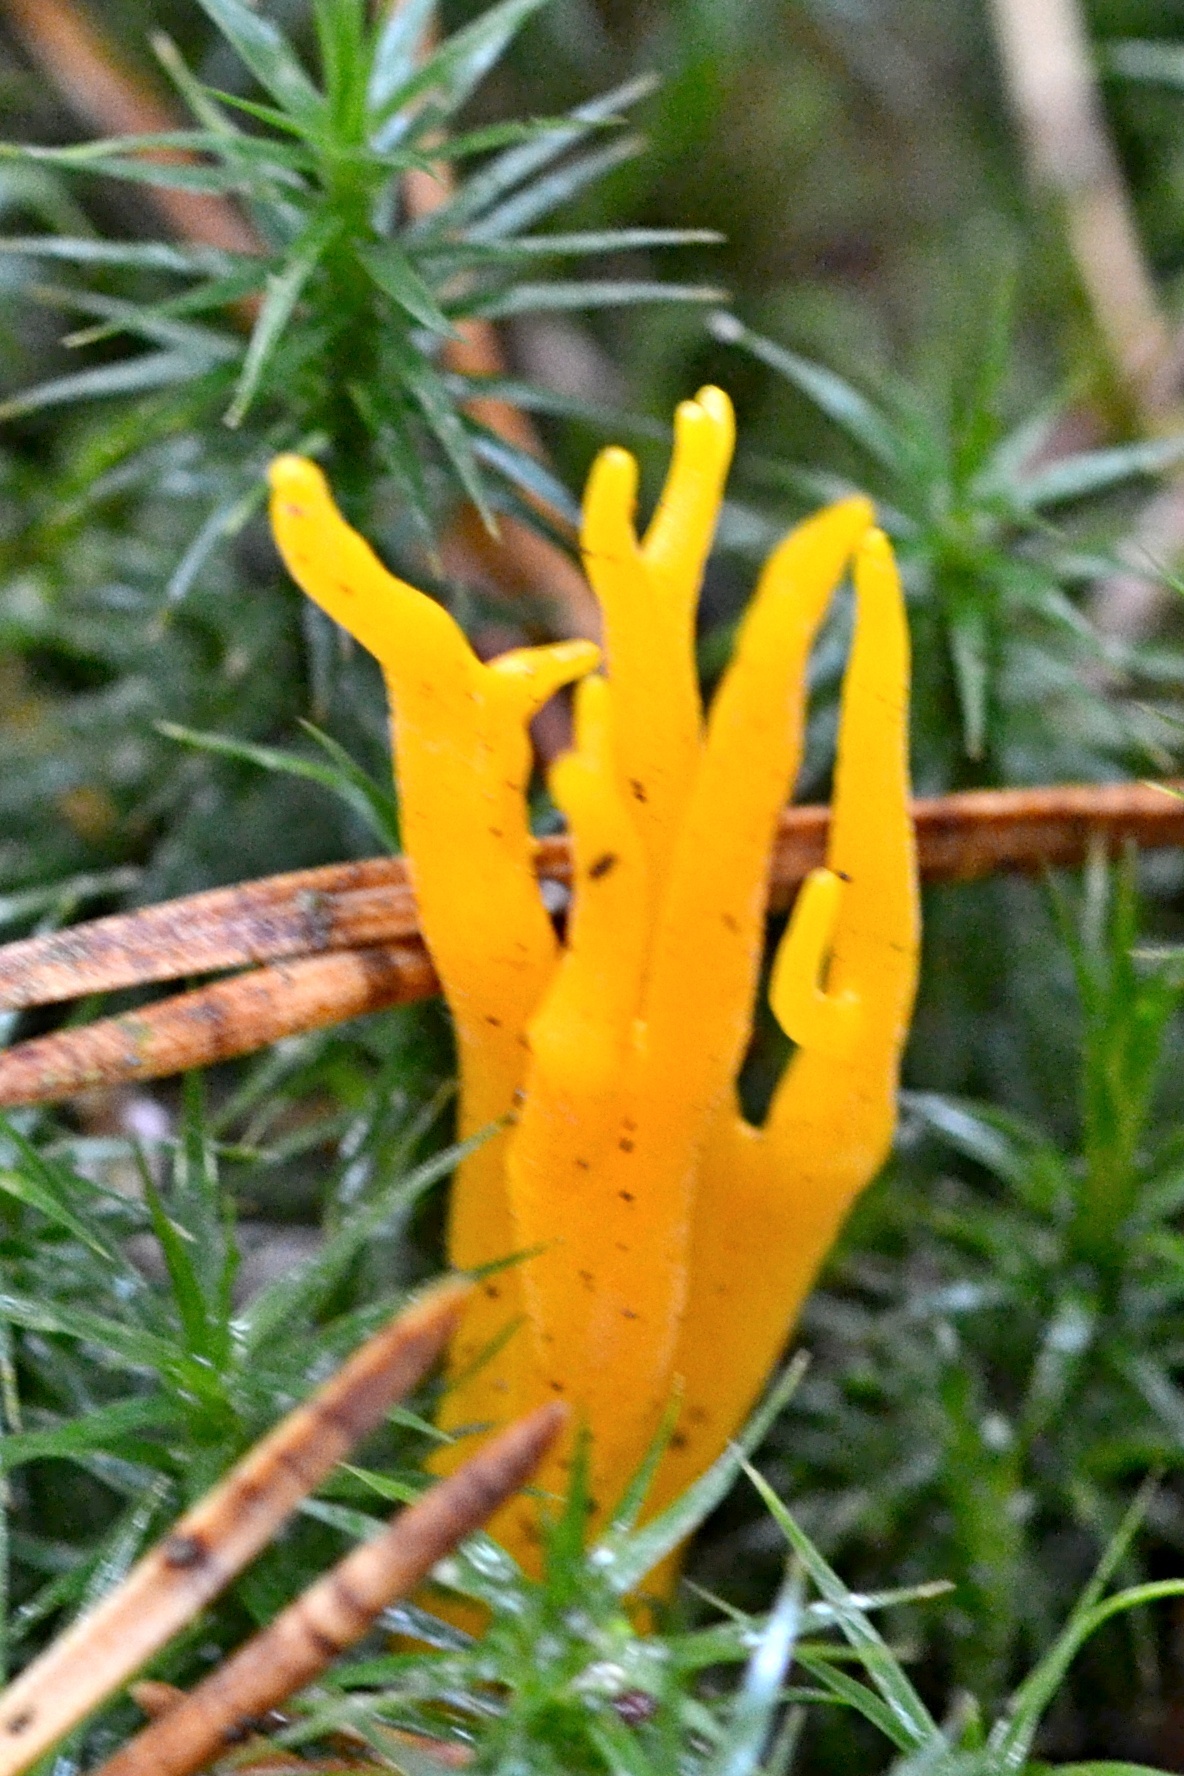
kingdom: Fungi
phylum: Basidiomycota
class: Dacrymycetes
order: Dacrymycetales
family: Dacrymycetaceae
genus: Calocera
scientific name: Calocera viscosa
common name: Yellow stagshorn
